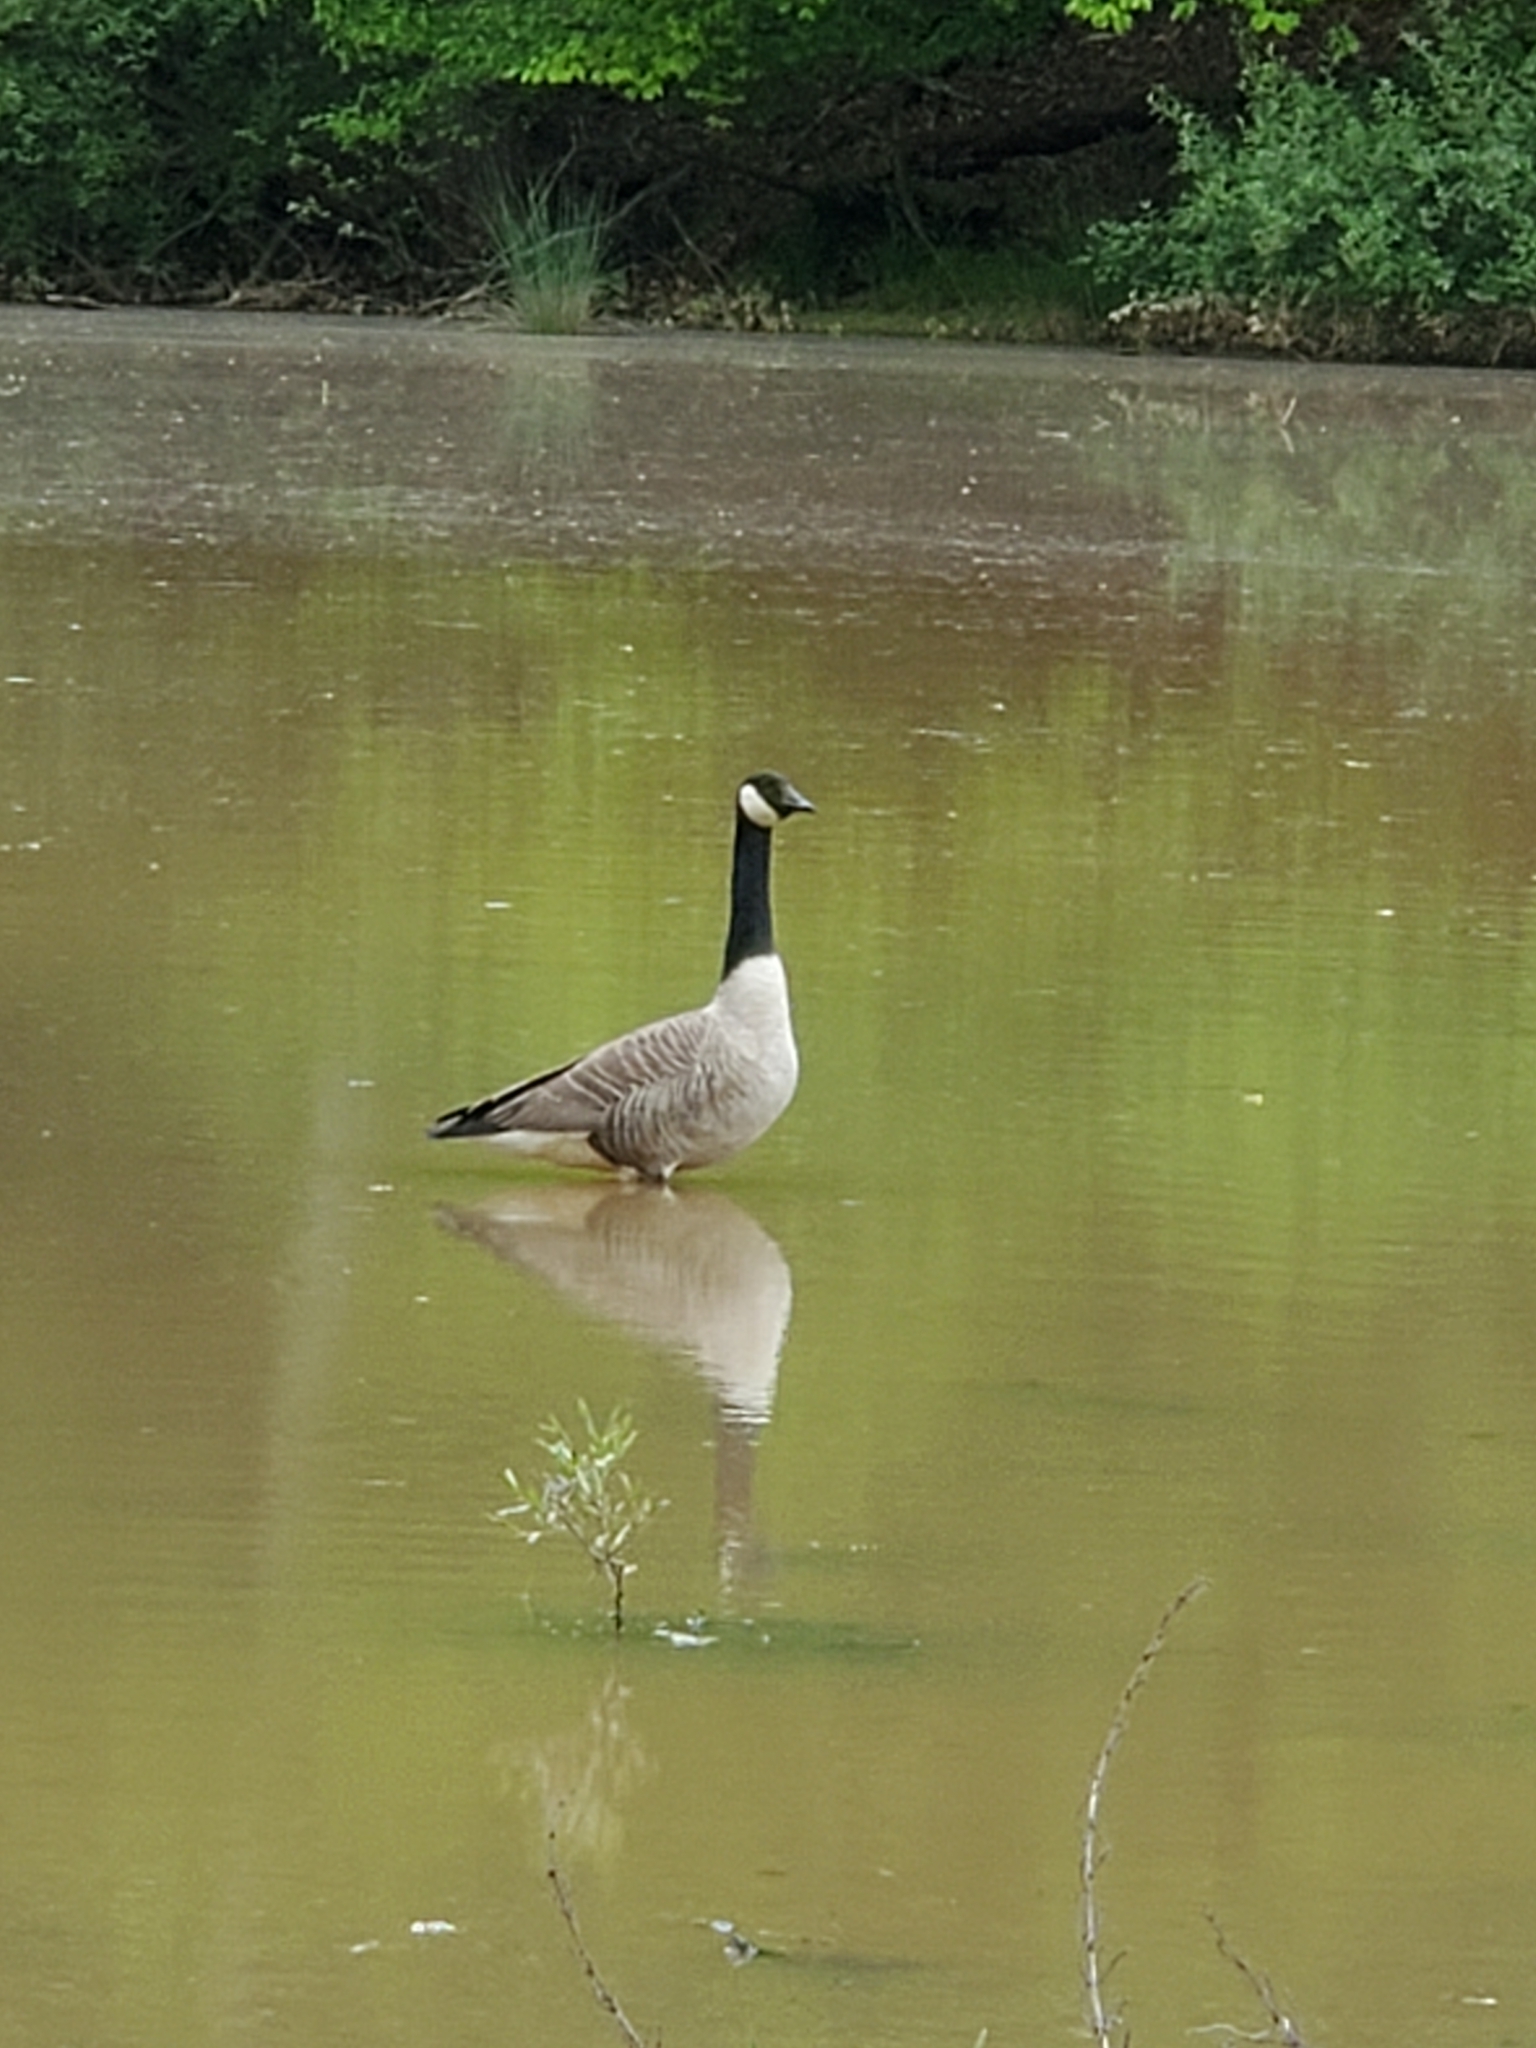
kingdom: Animalia
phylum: Chordata
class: Aves
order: Anseriformes
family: Anatidae
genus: Branta
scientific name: Branta canadensis
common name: Canada goose
